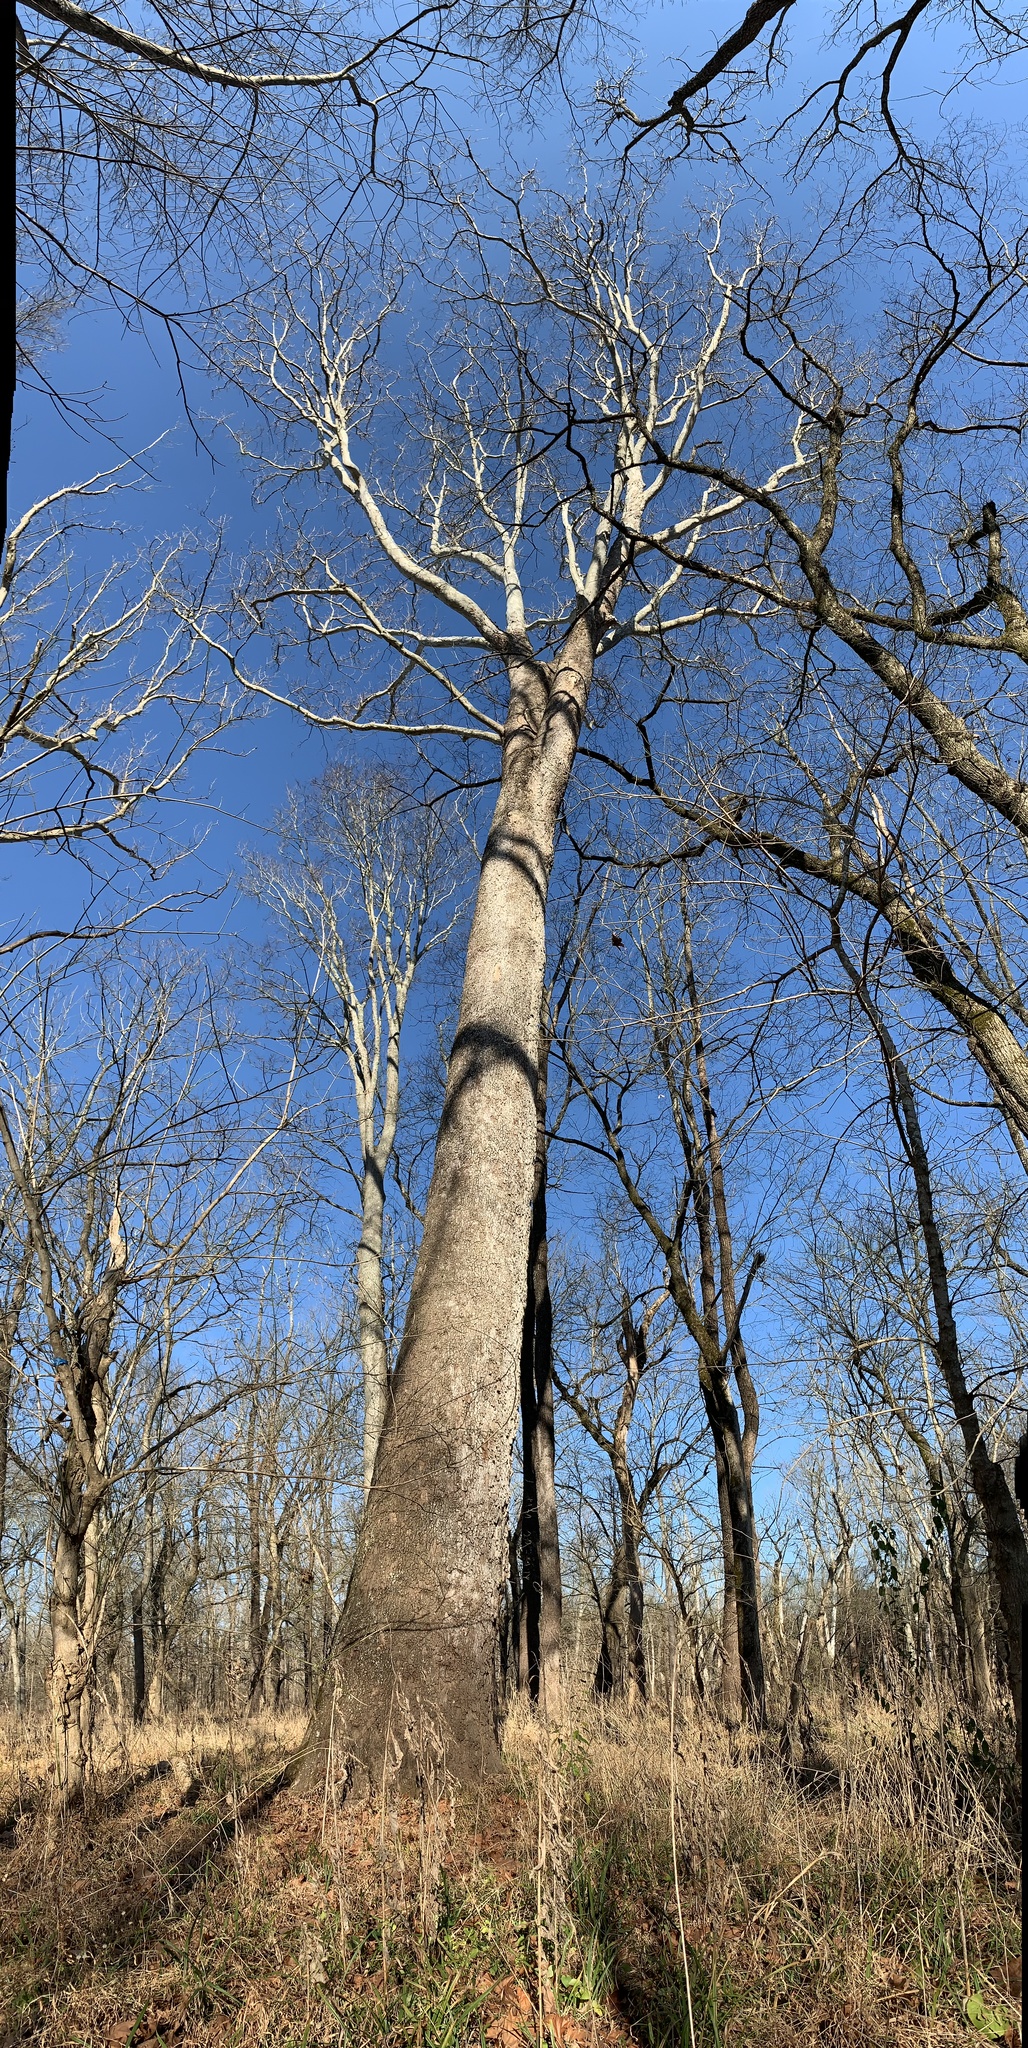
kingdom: Plantae
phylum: Tracheophyta
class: Magnoliopsida
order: Proteales
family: Platanaceae
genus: Platanus
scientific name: Platanus occidentalis
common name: American sycamore
